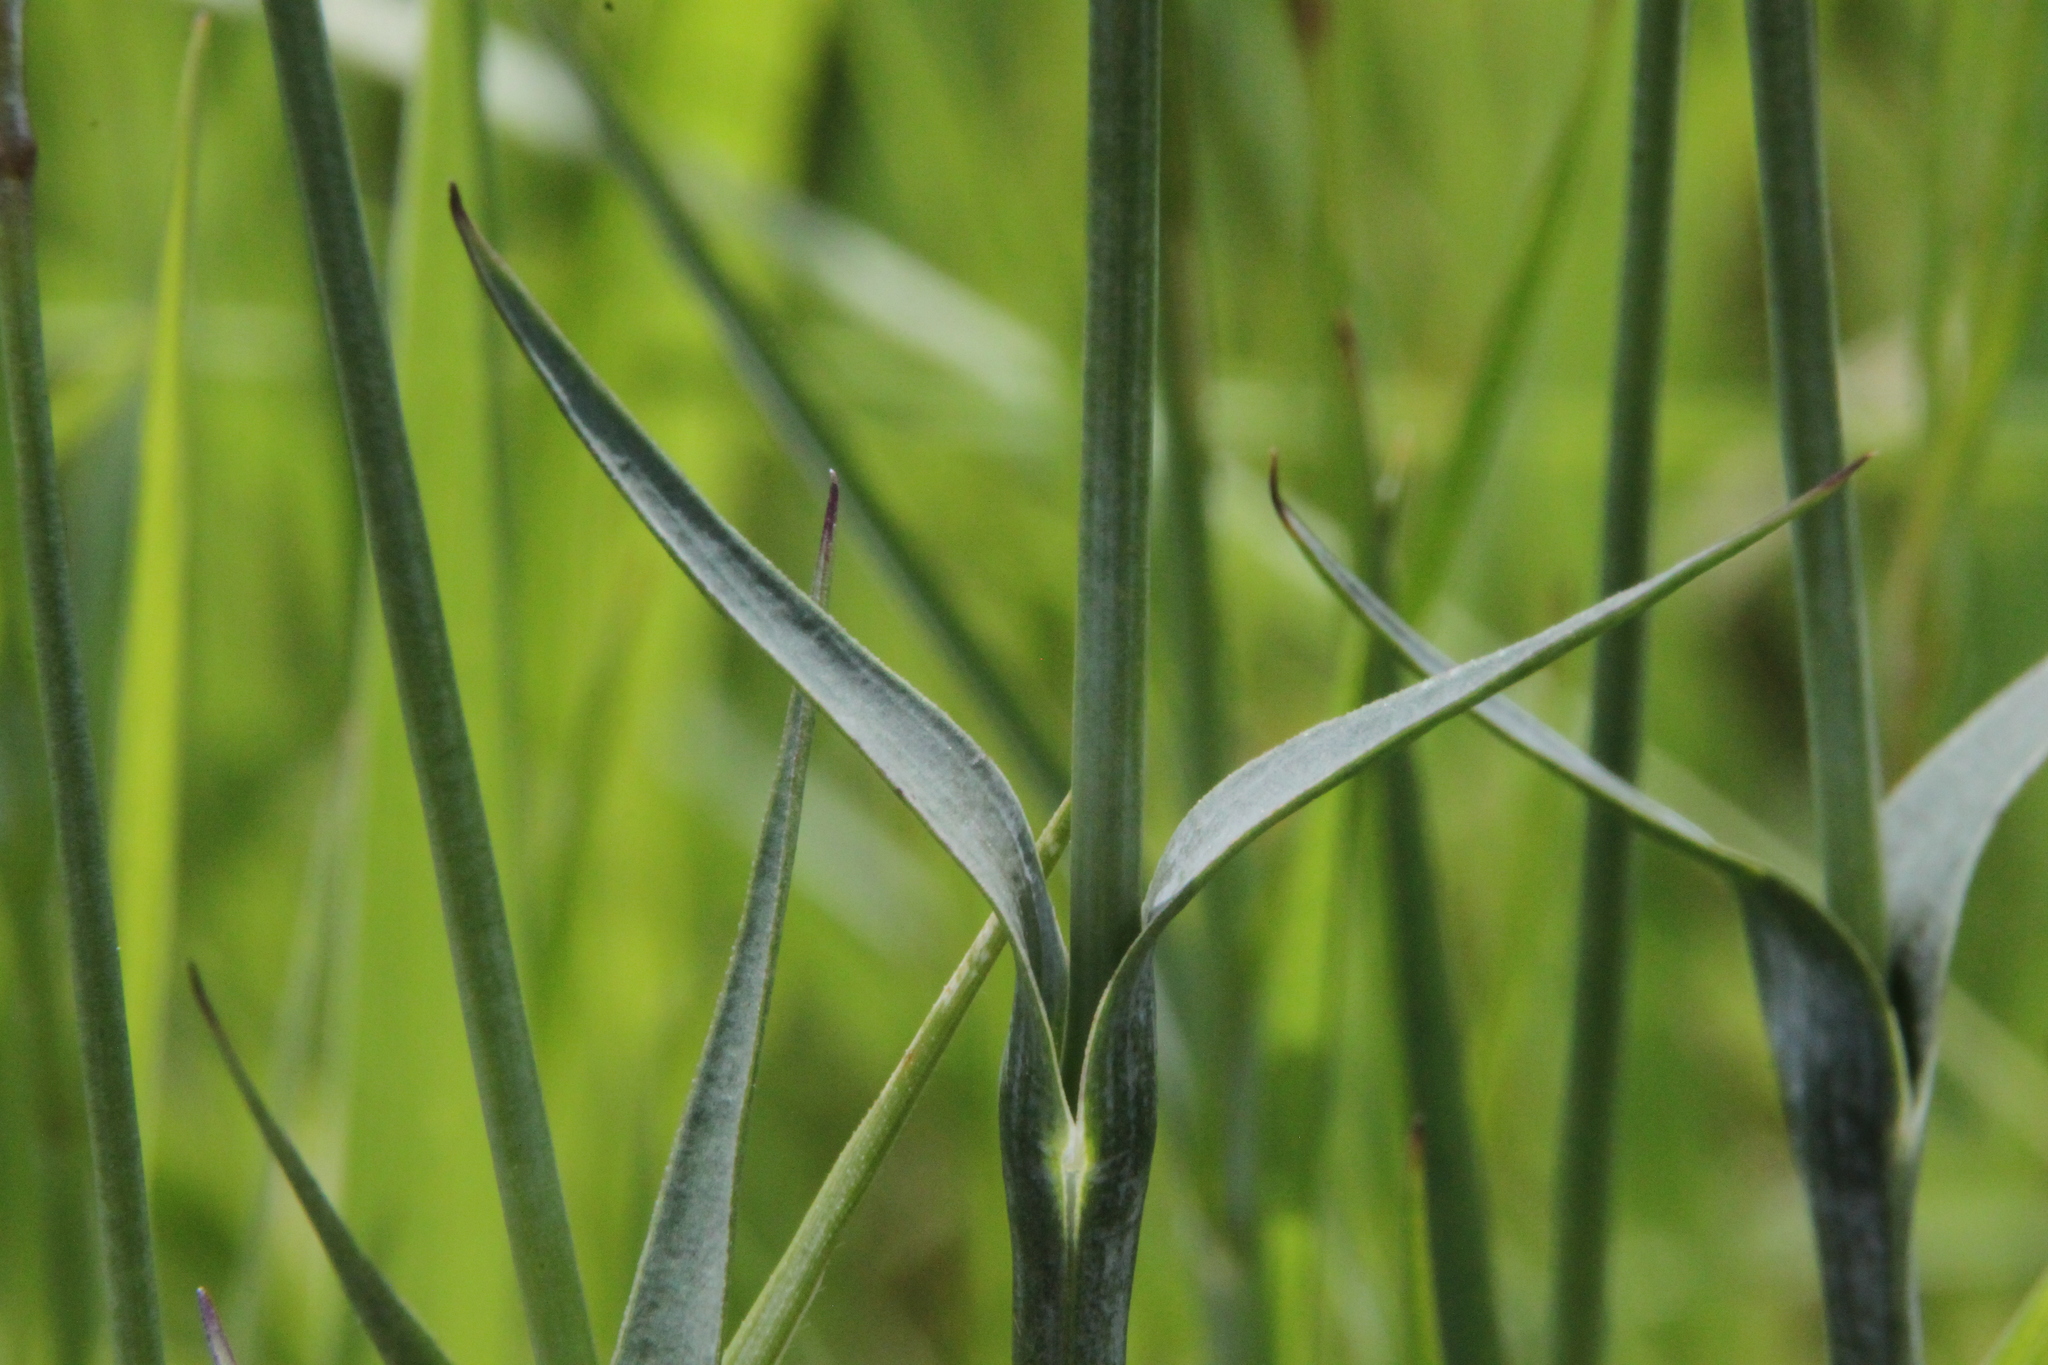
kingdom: Plantae
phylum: Tracheophyta
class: Magnoliopsida
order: Caryophyllales
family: Caryophyllaceae
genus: Dianthus
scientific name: Dianthus capitatus
